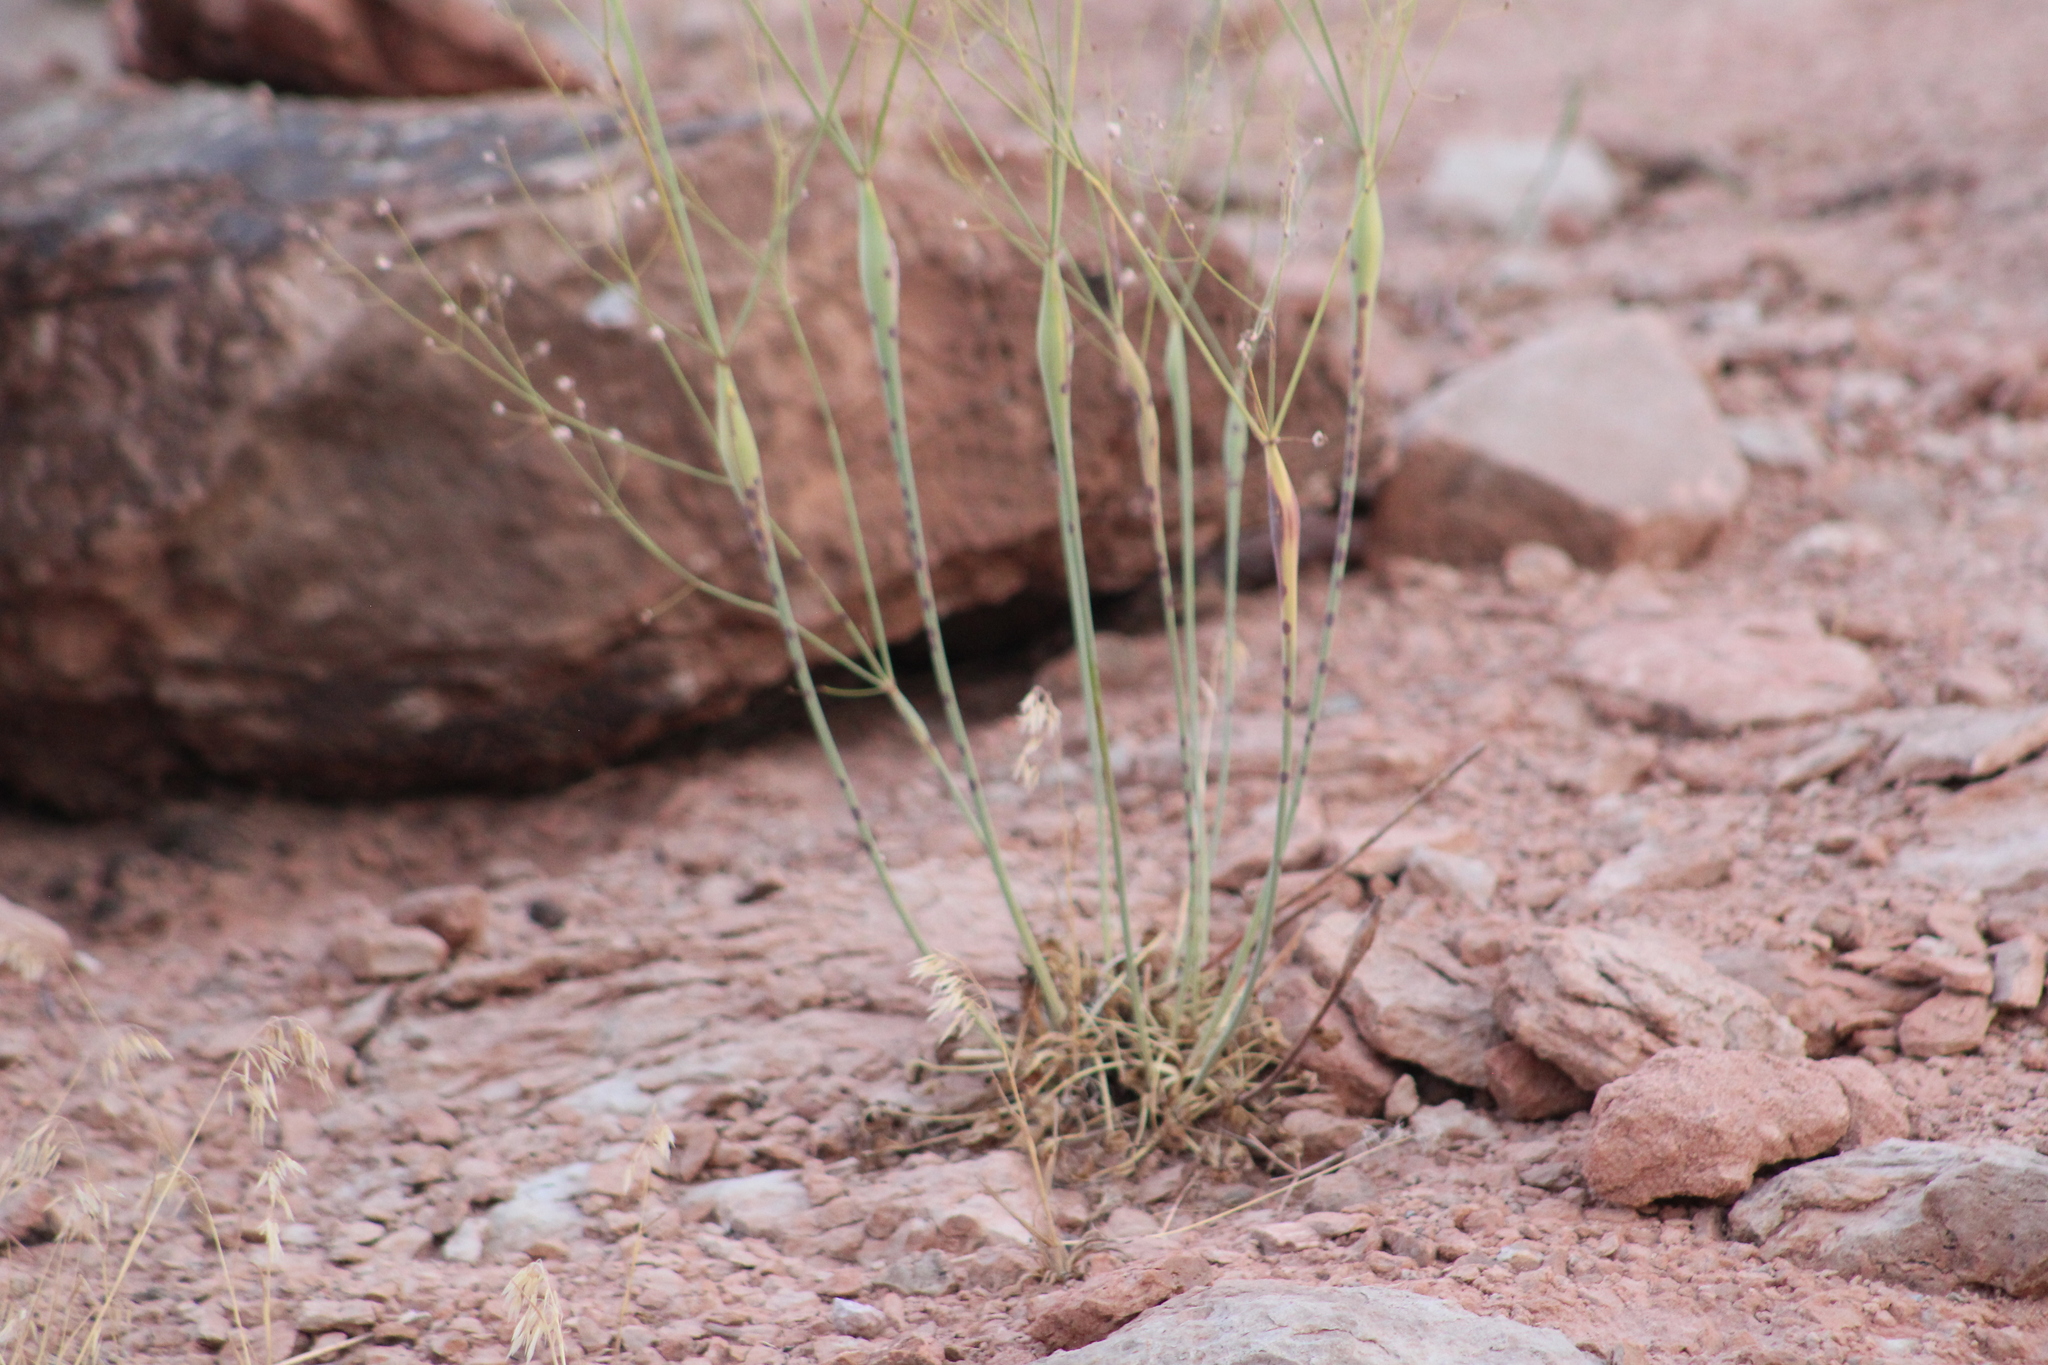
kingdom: Plantae
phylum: Tracheophyta
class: Magnoliopsida
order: Caryophyllales
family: Polygonaceae
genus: Eriogonum
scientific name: Eriogonum inflatum
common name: Desert trumpet
